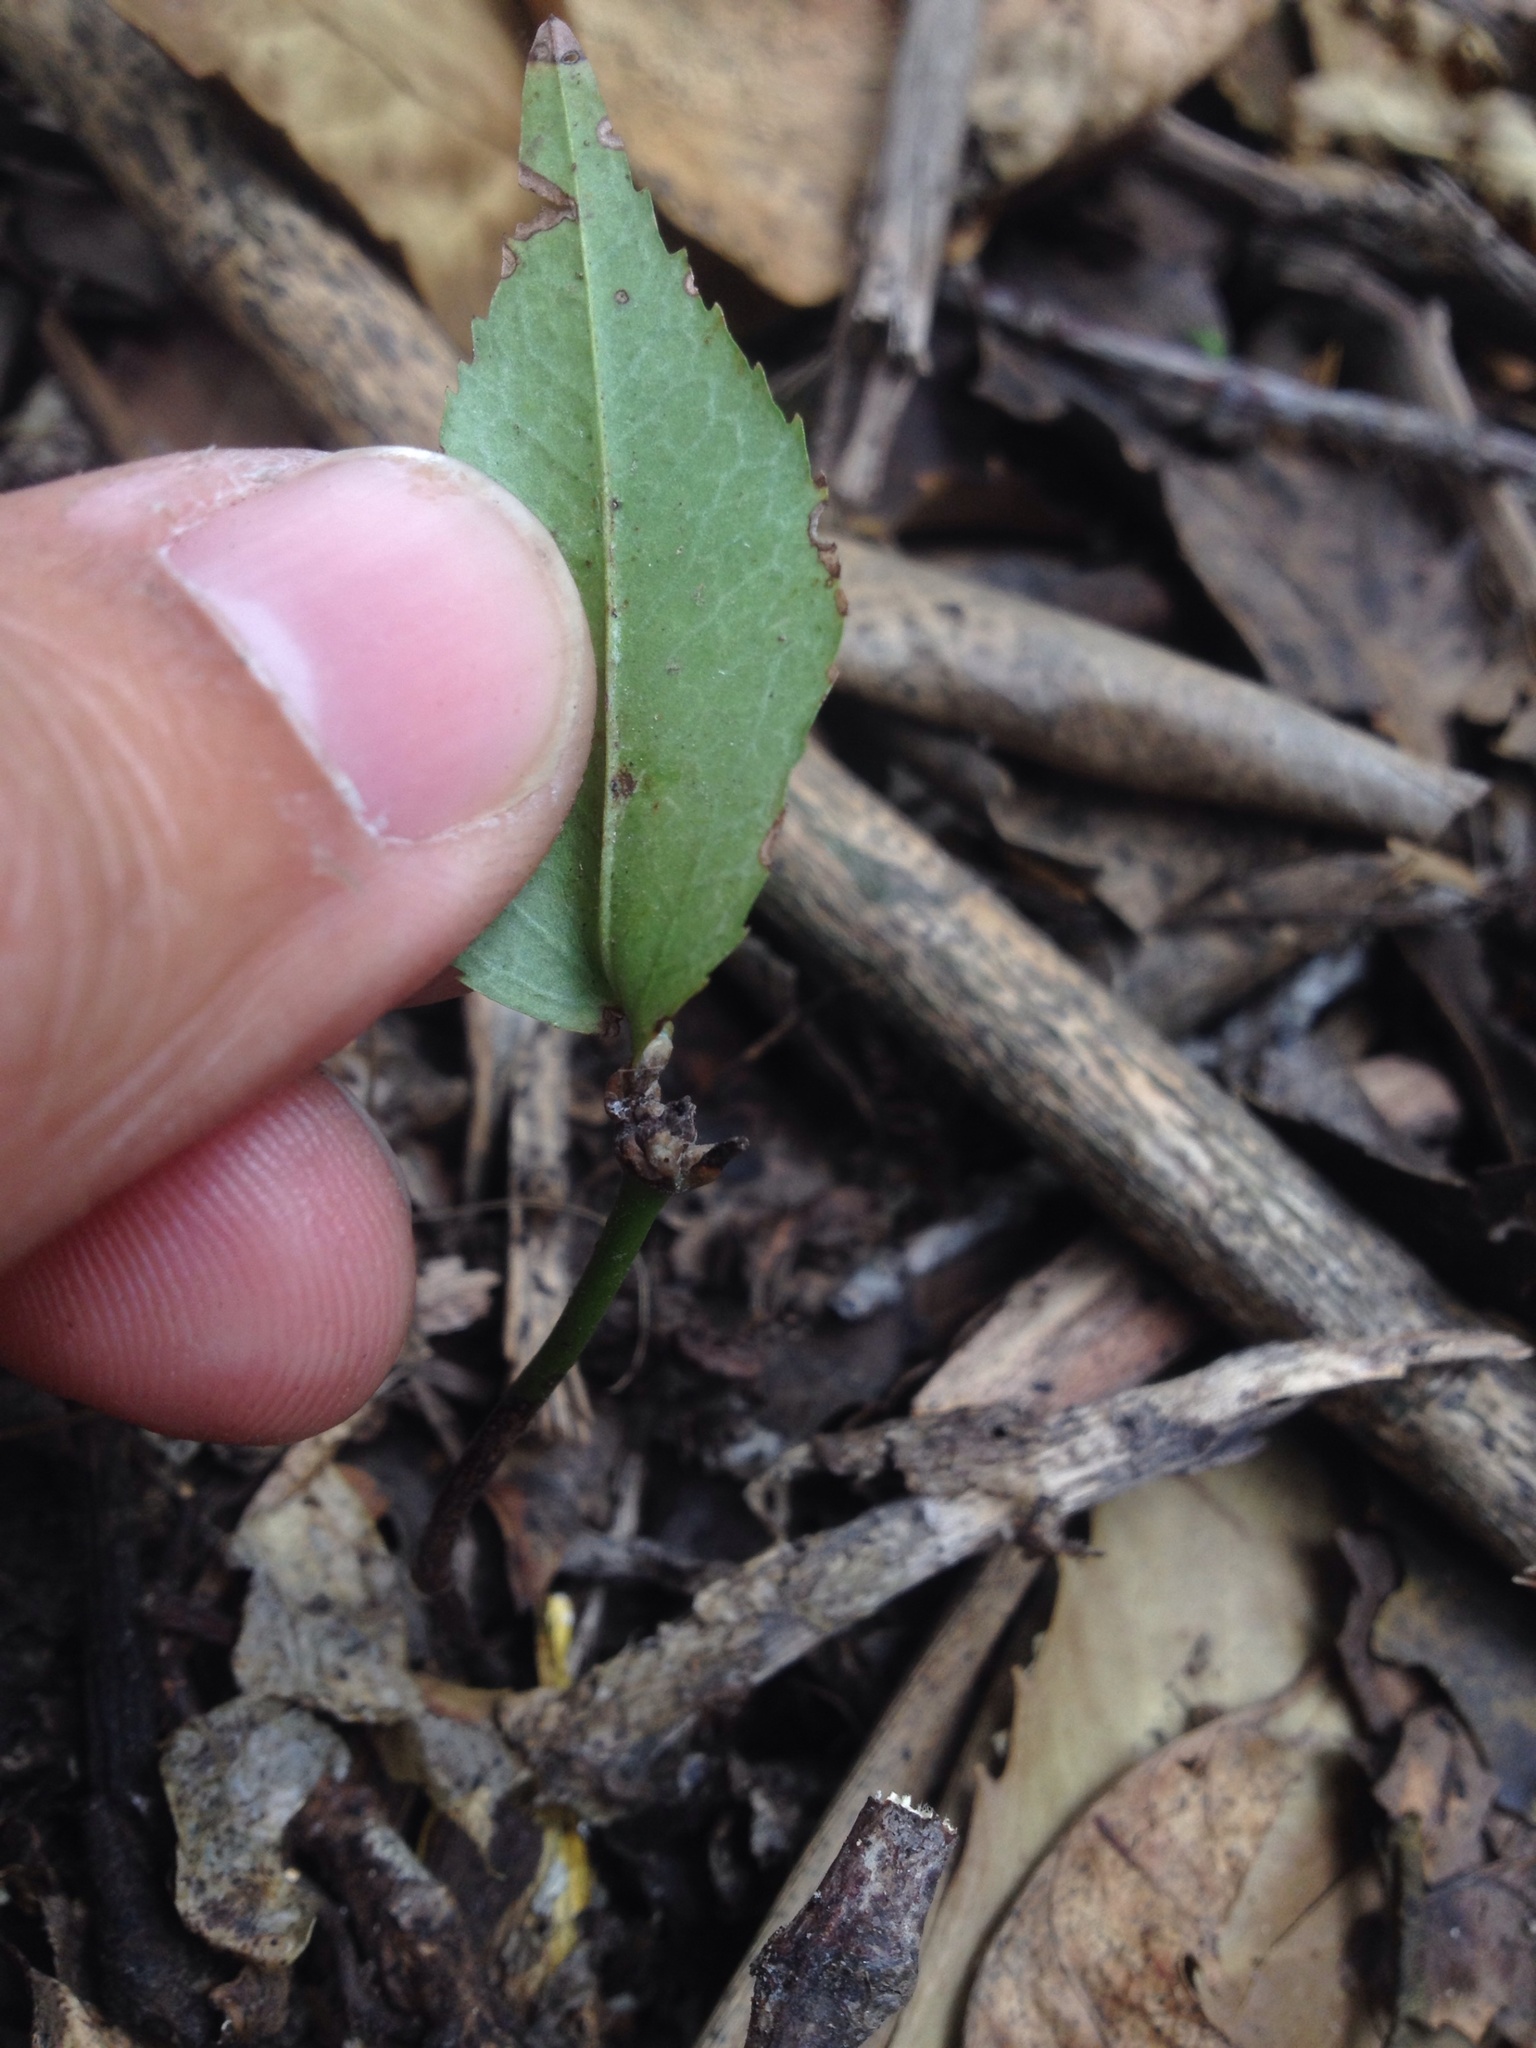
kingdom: Plantae
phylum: Tracheophyta
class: Magnoliopsida
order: Rosales
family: Rosaceae
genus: Prunus
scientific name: Prunus lusitanica
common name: Portugal laurel
